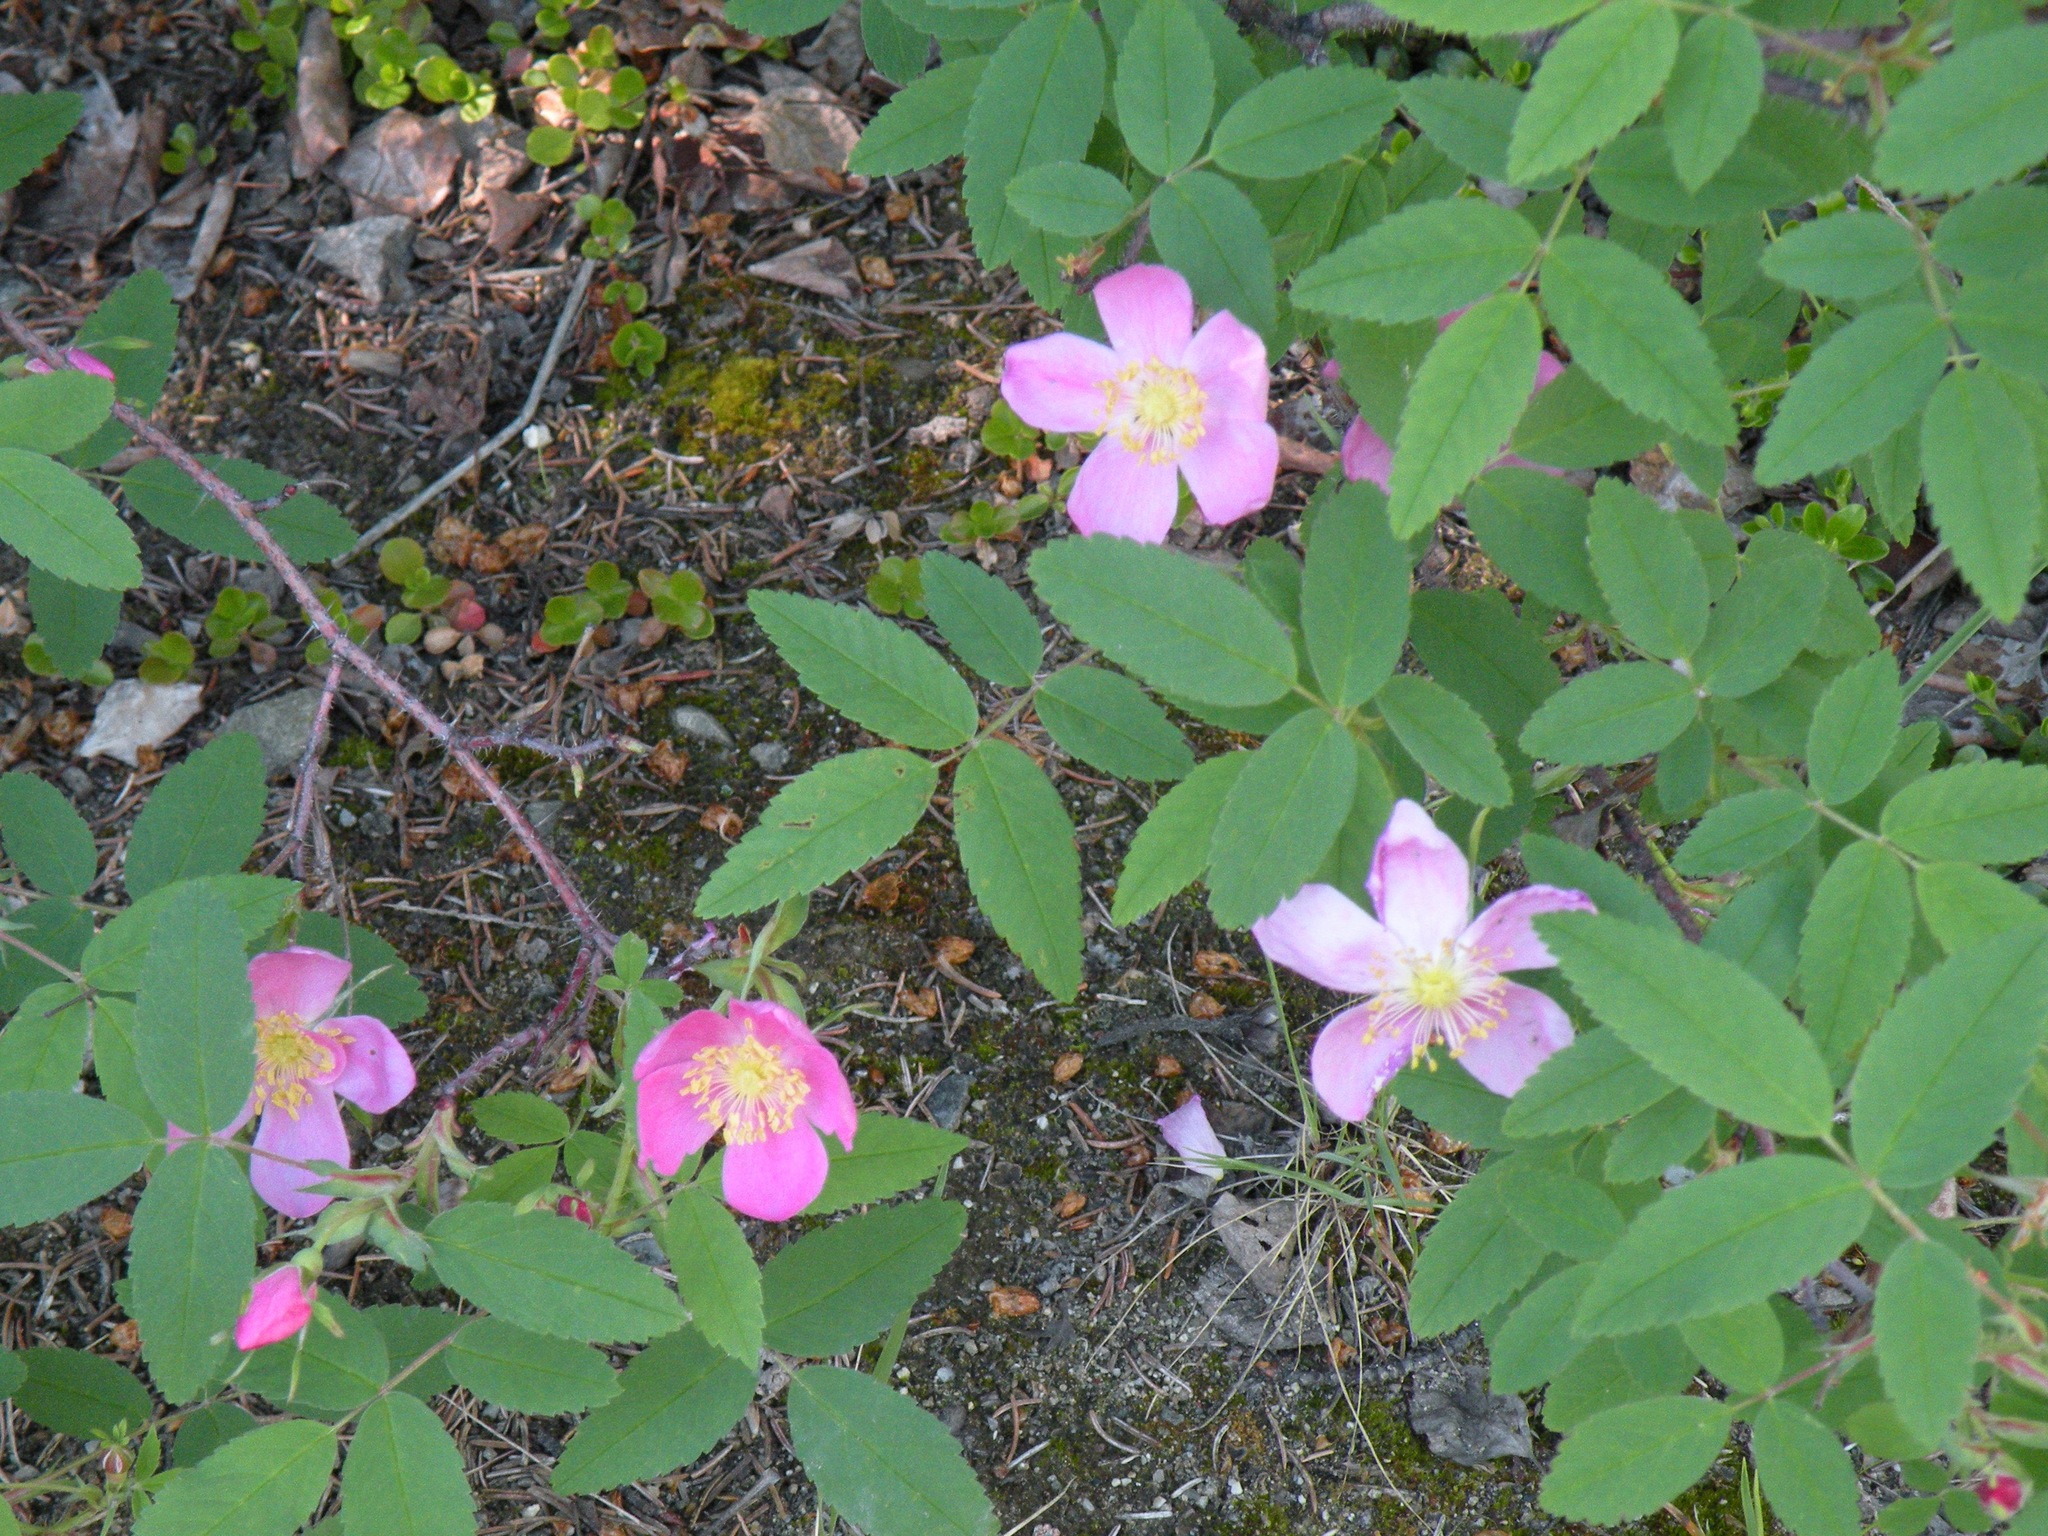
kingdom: Plantae
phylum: Tracheophyta
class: Magnoliopsida
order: Rosales
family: Rosaceae
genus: Rosa
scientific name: Rosa acicularis
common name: Prickly rose
